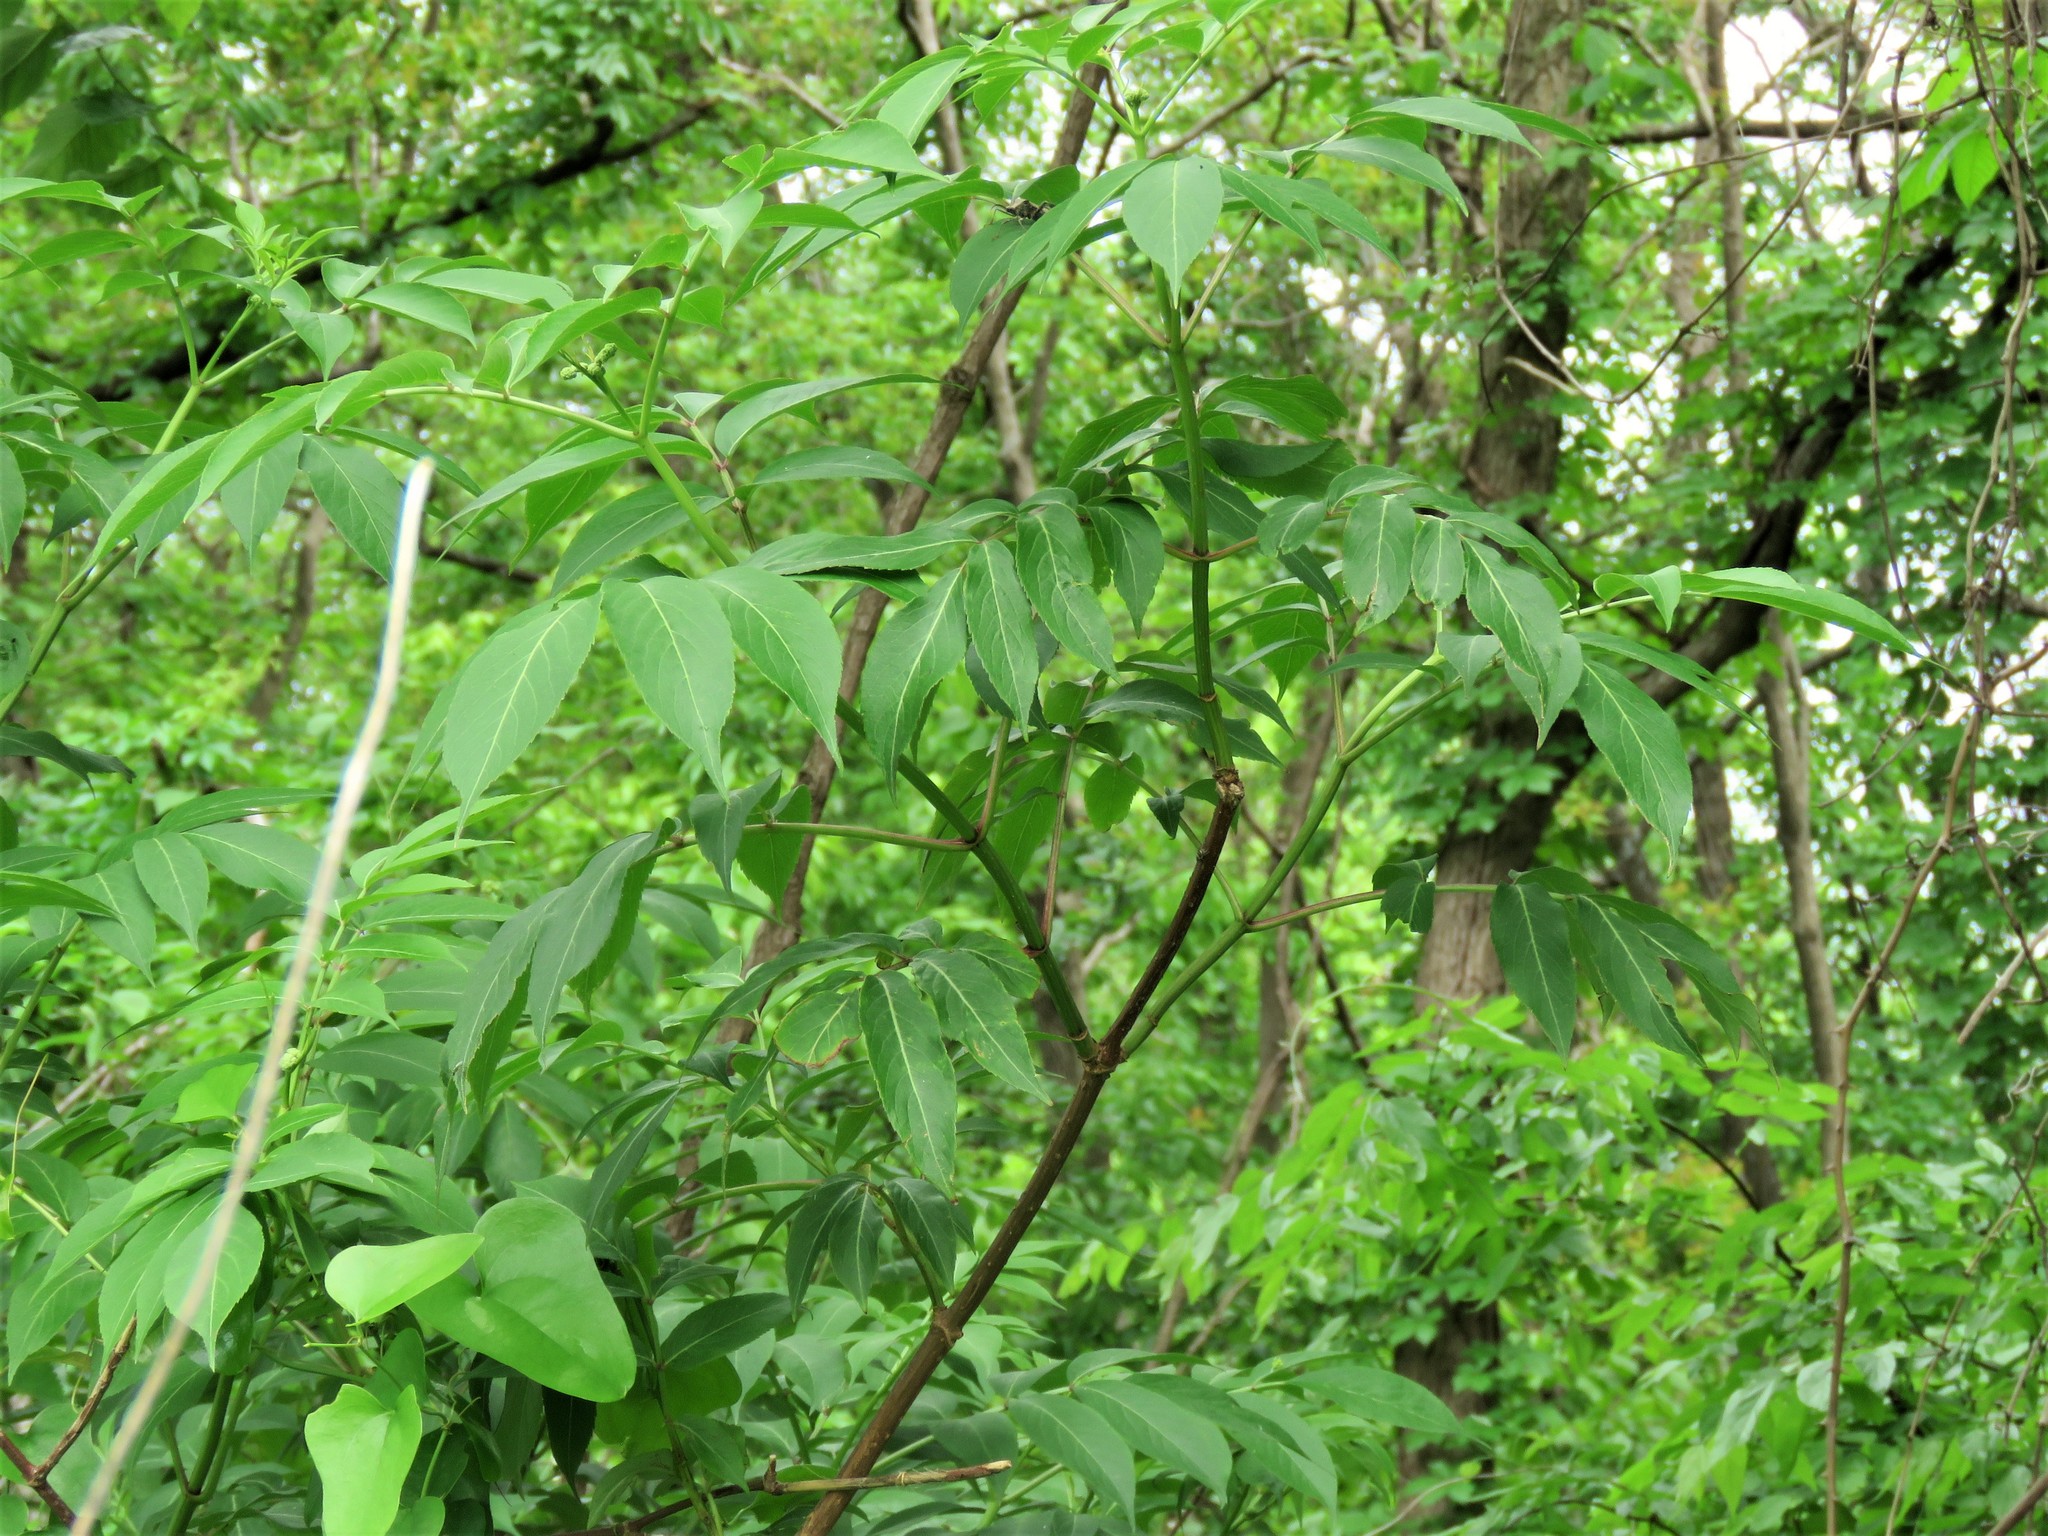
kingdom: Plantae
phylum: Tracheophyta
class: Magnoliopsida
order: Dipsacales
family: Viburnaceae
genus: Sambucus
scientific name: Sambucus canadensis
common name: American elder
